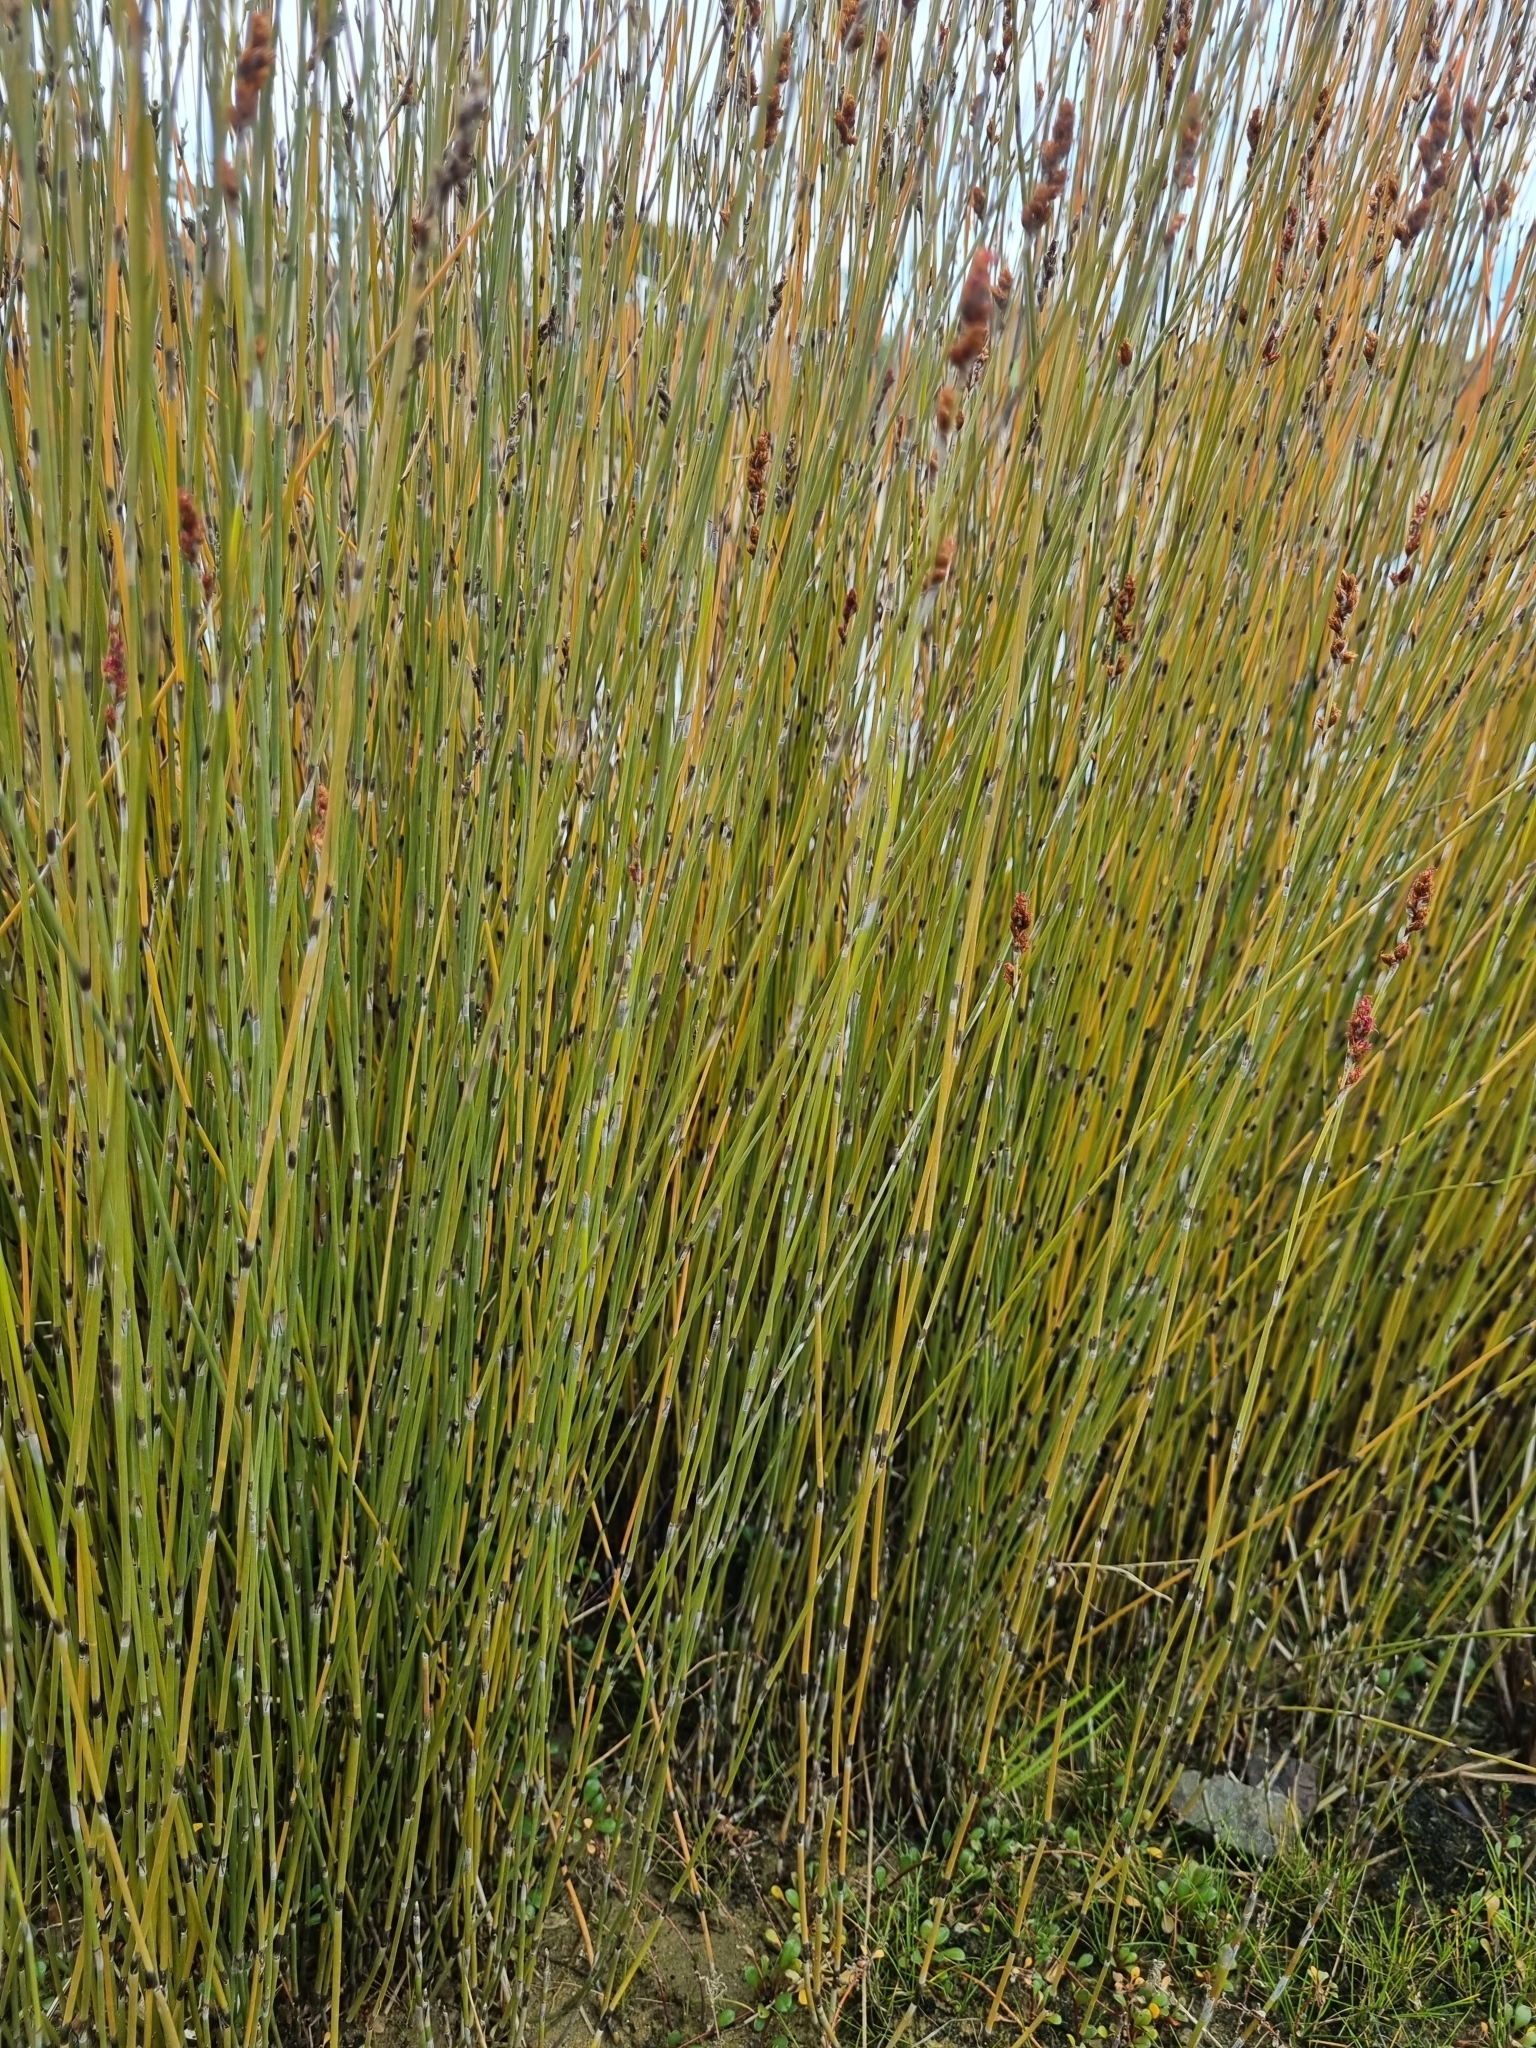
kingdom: Plantae
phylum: Tracheophyta
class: Liliopsida
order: Poales
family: Restionaceae
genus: Apodasmia
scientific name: Apodasmia similis
